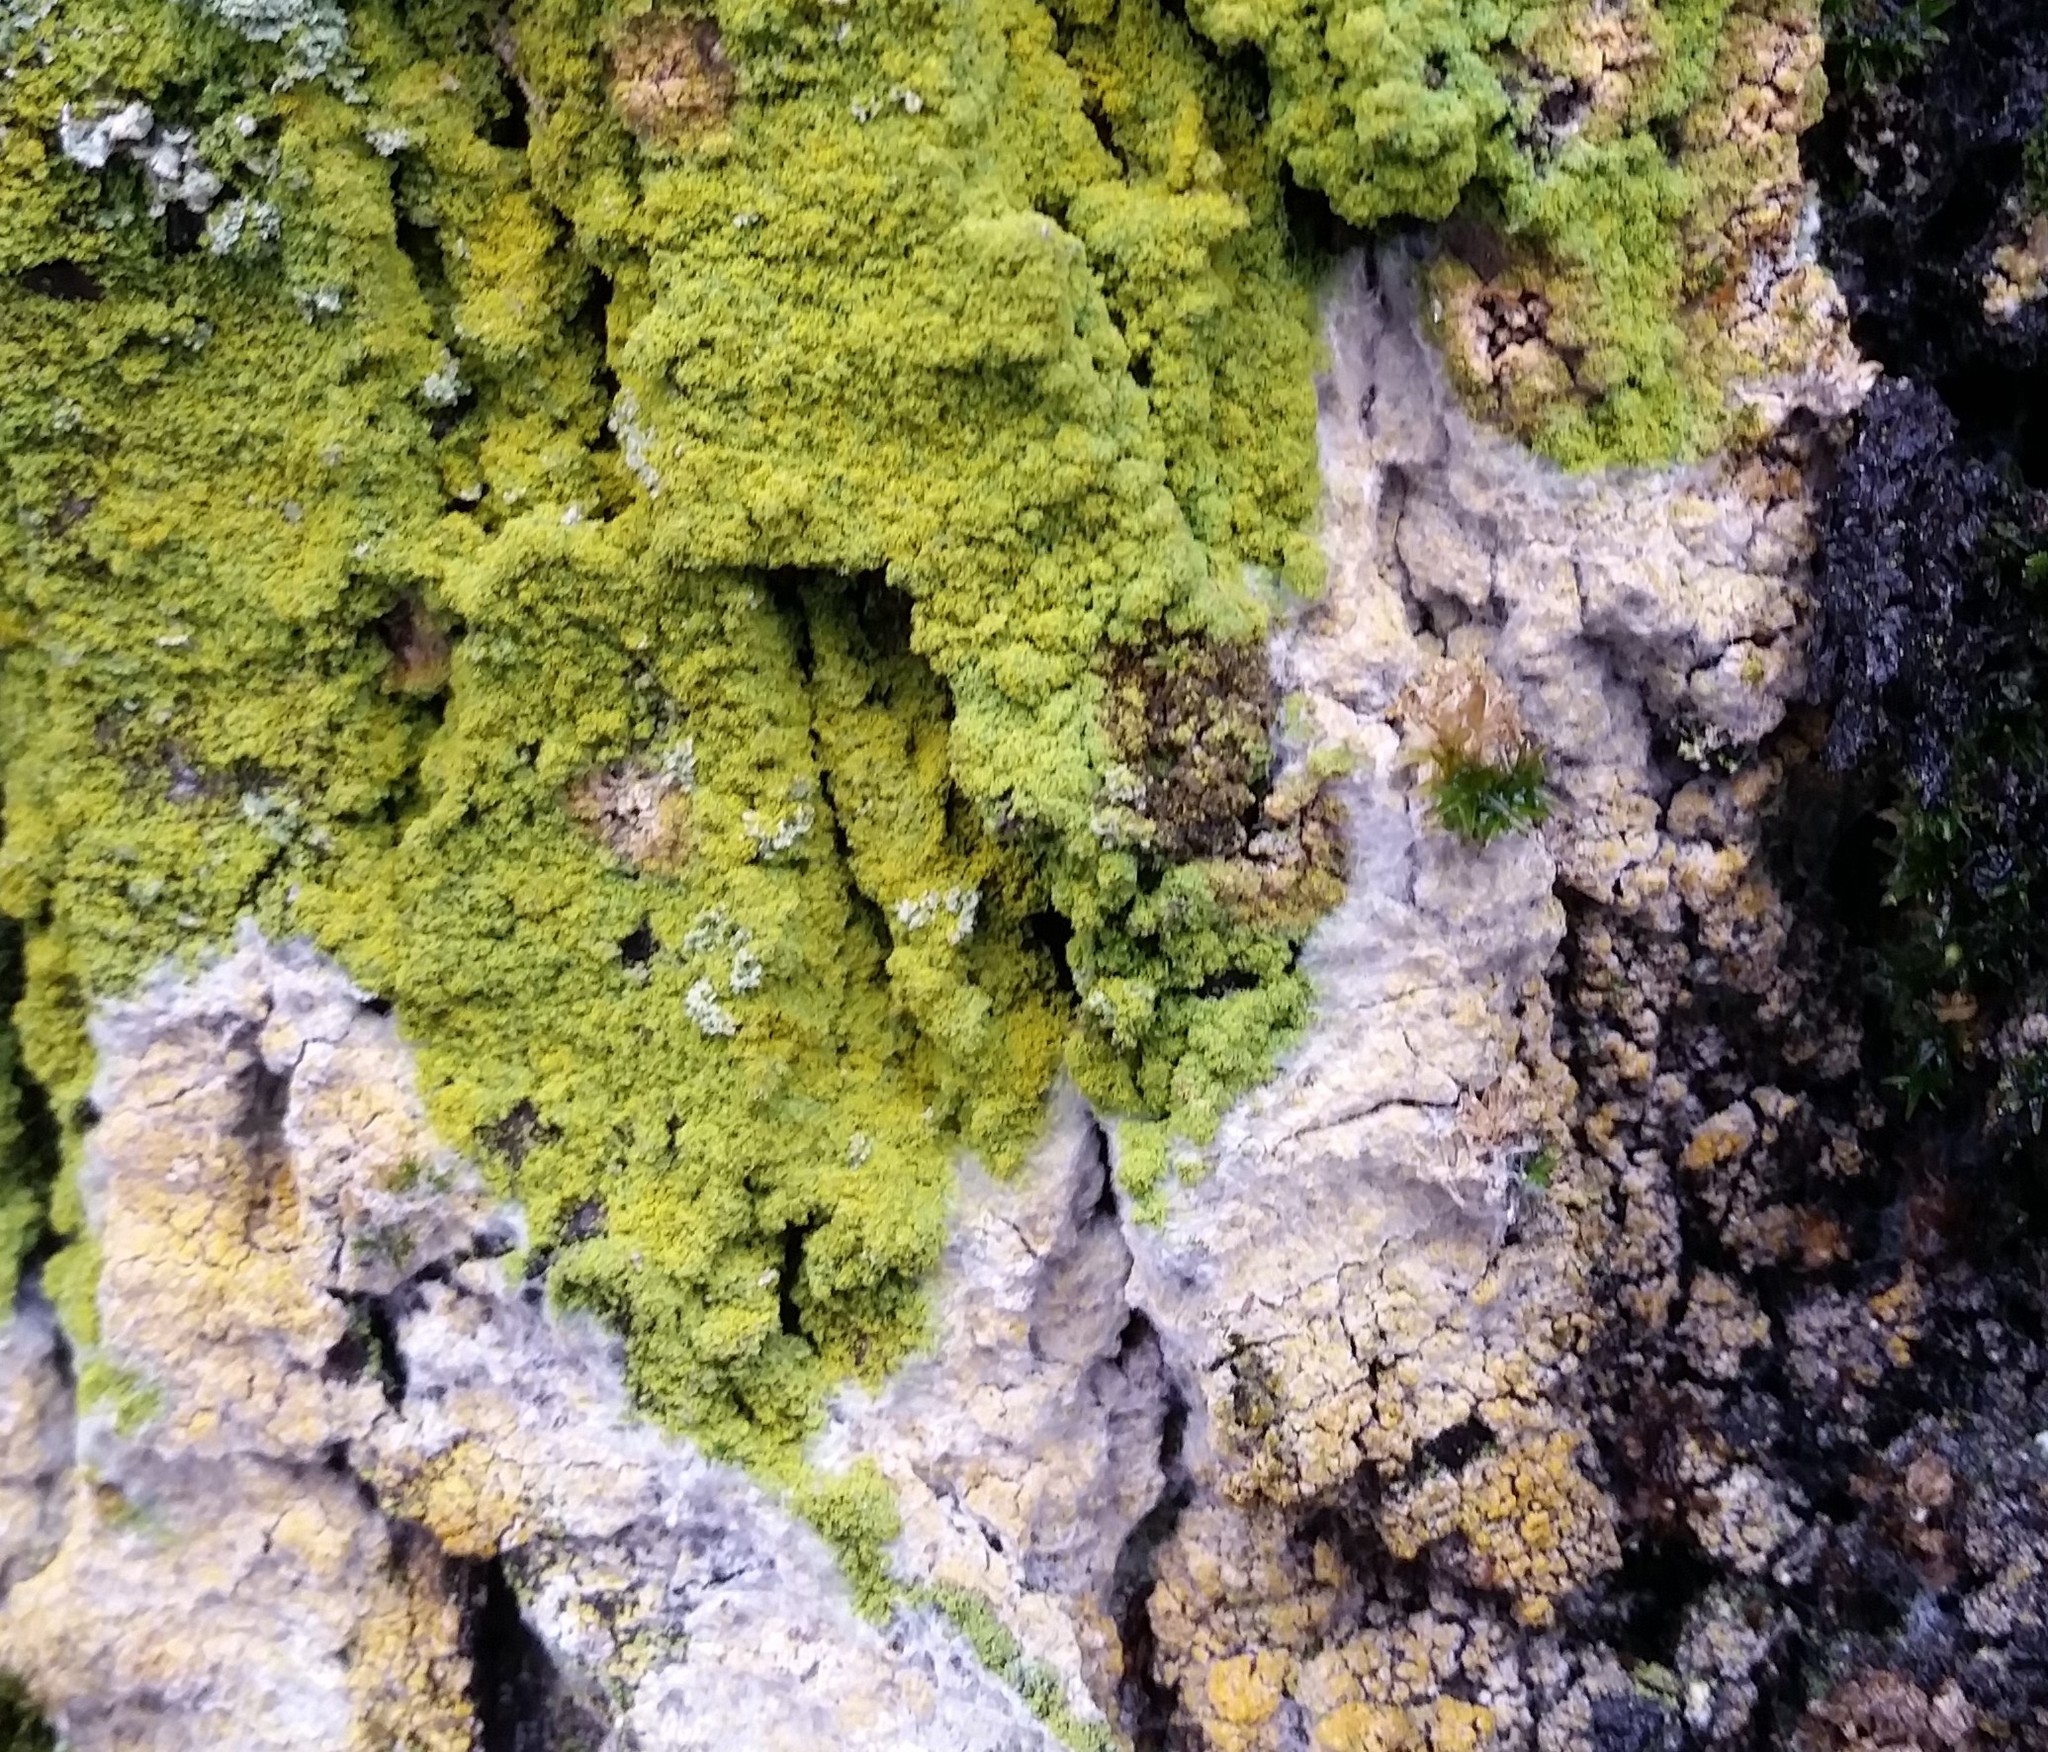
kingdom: Fungi
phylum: Basidiomycota
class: Agaricomycetes
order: Atheliales
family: Atheliaceae
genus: Athelia
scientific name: Athelia arachnoidea
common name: Candelabra duster
